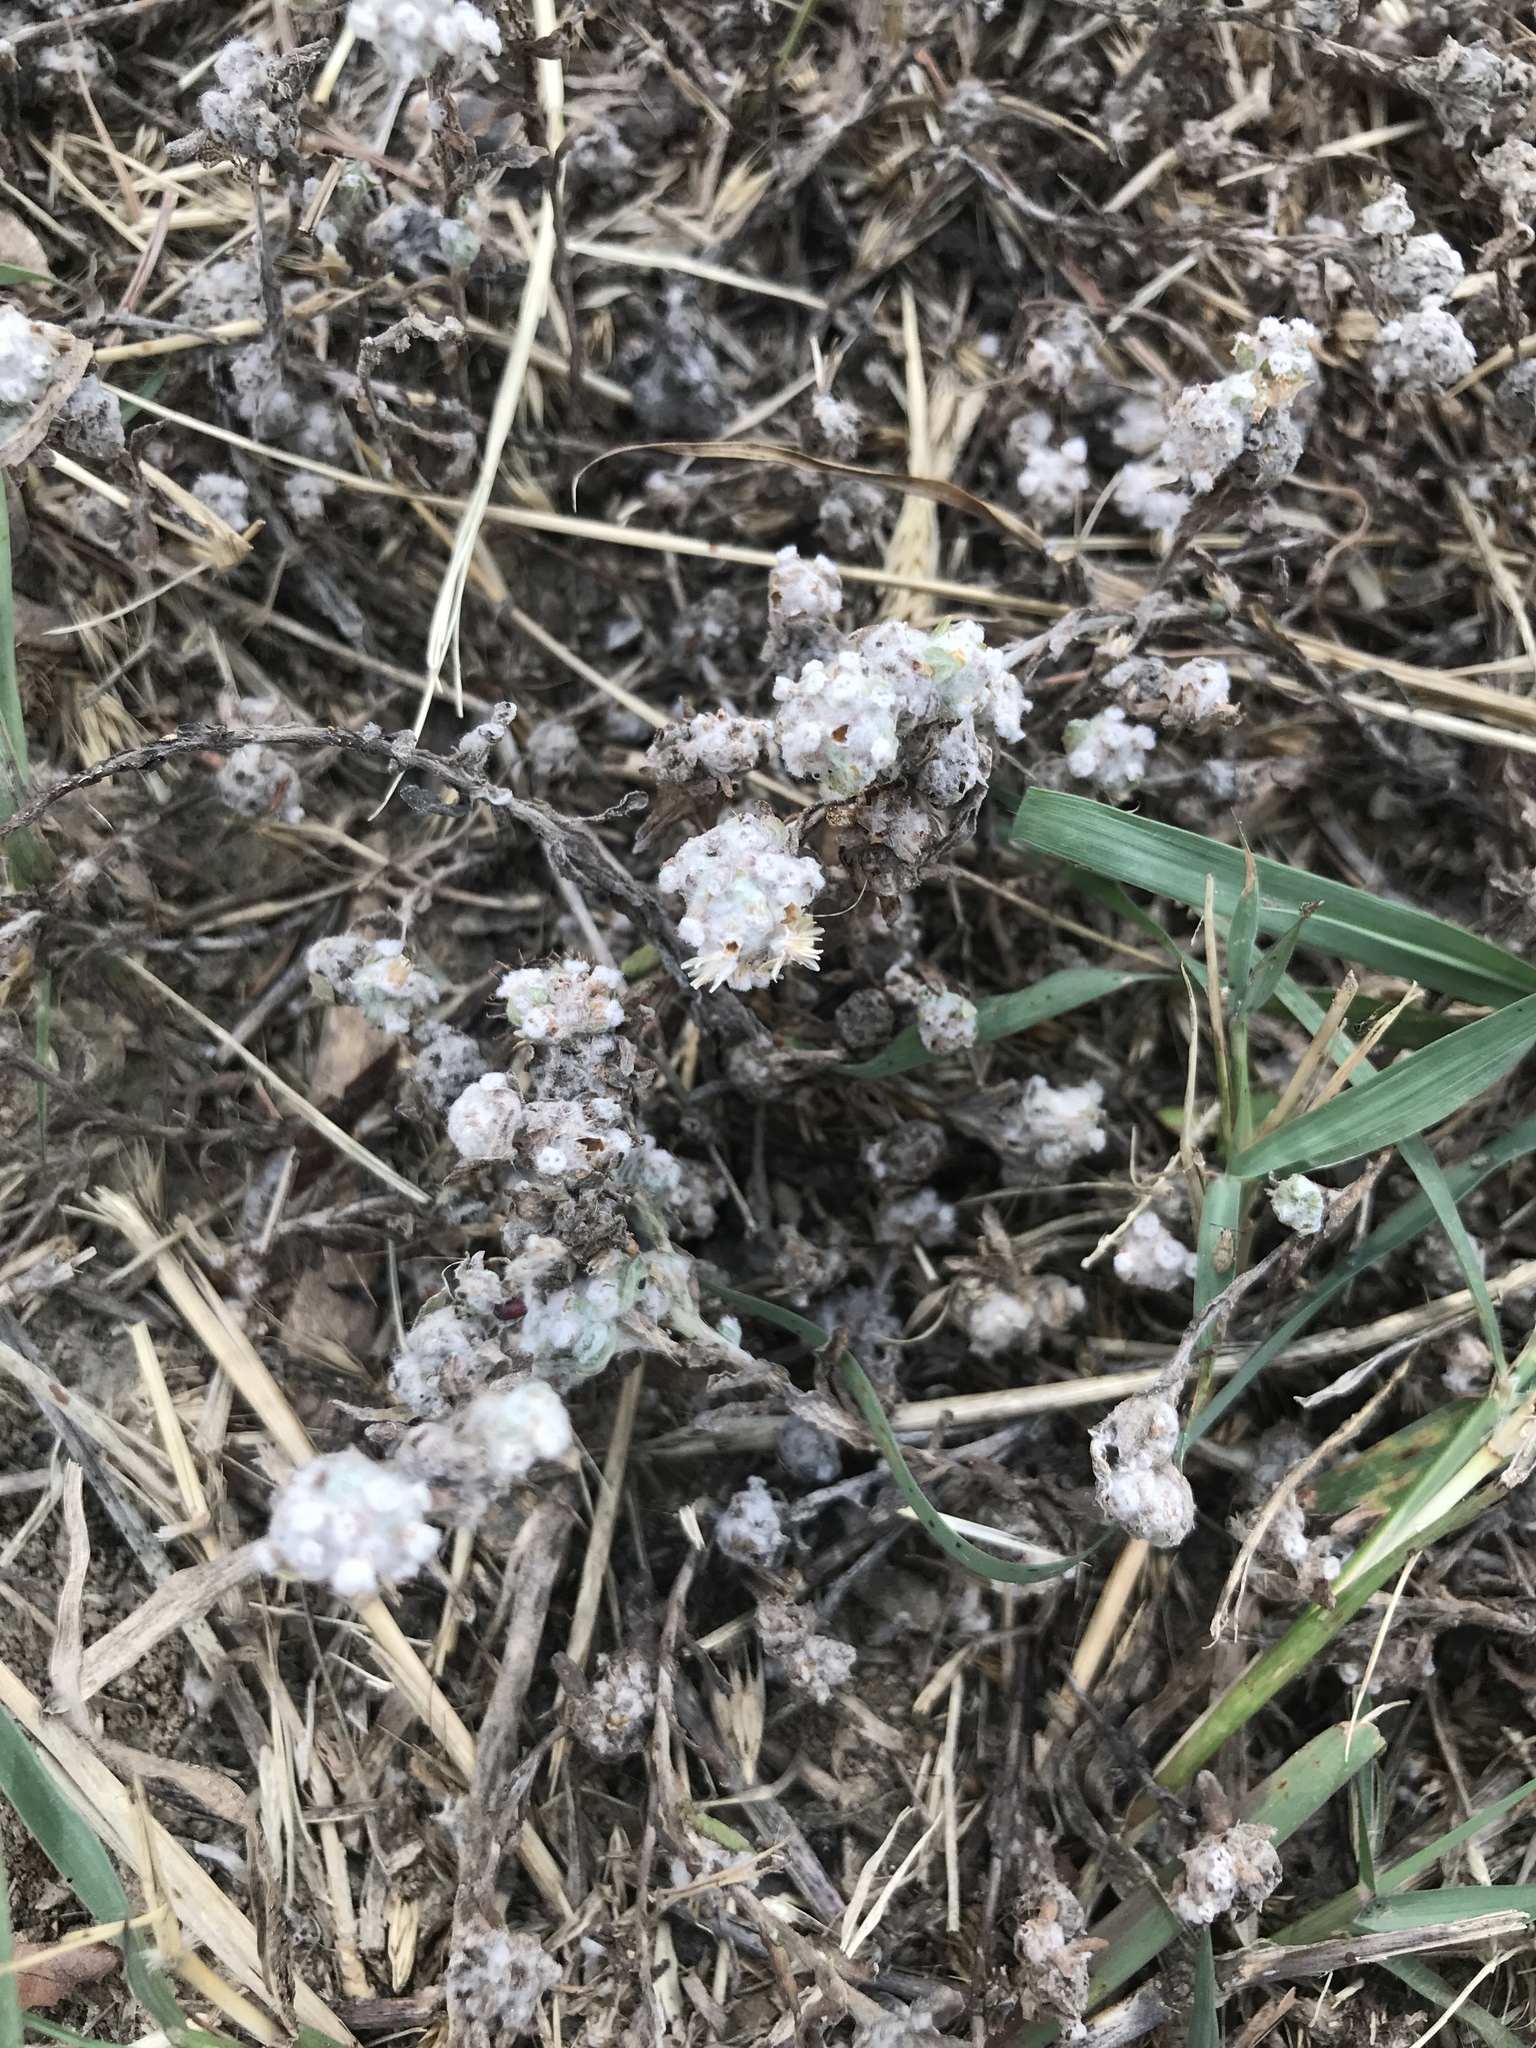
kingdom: Plantae
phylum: Tracheophyta
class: Magnoliopsida
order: Asterales
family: Asteraceae
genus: Diaperia
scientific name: Diaperia verna
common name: Many-stem rabbit-tobacco
